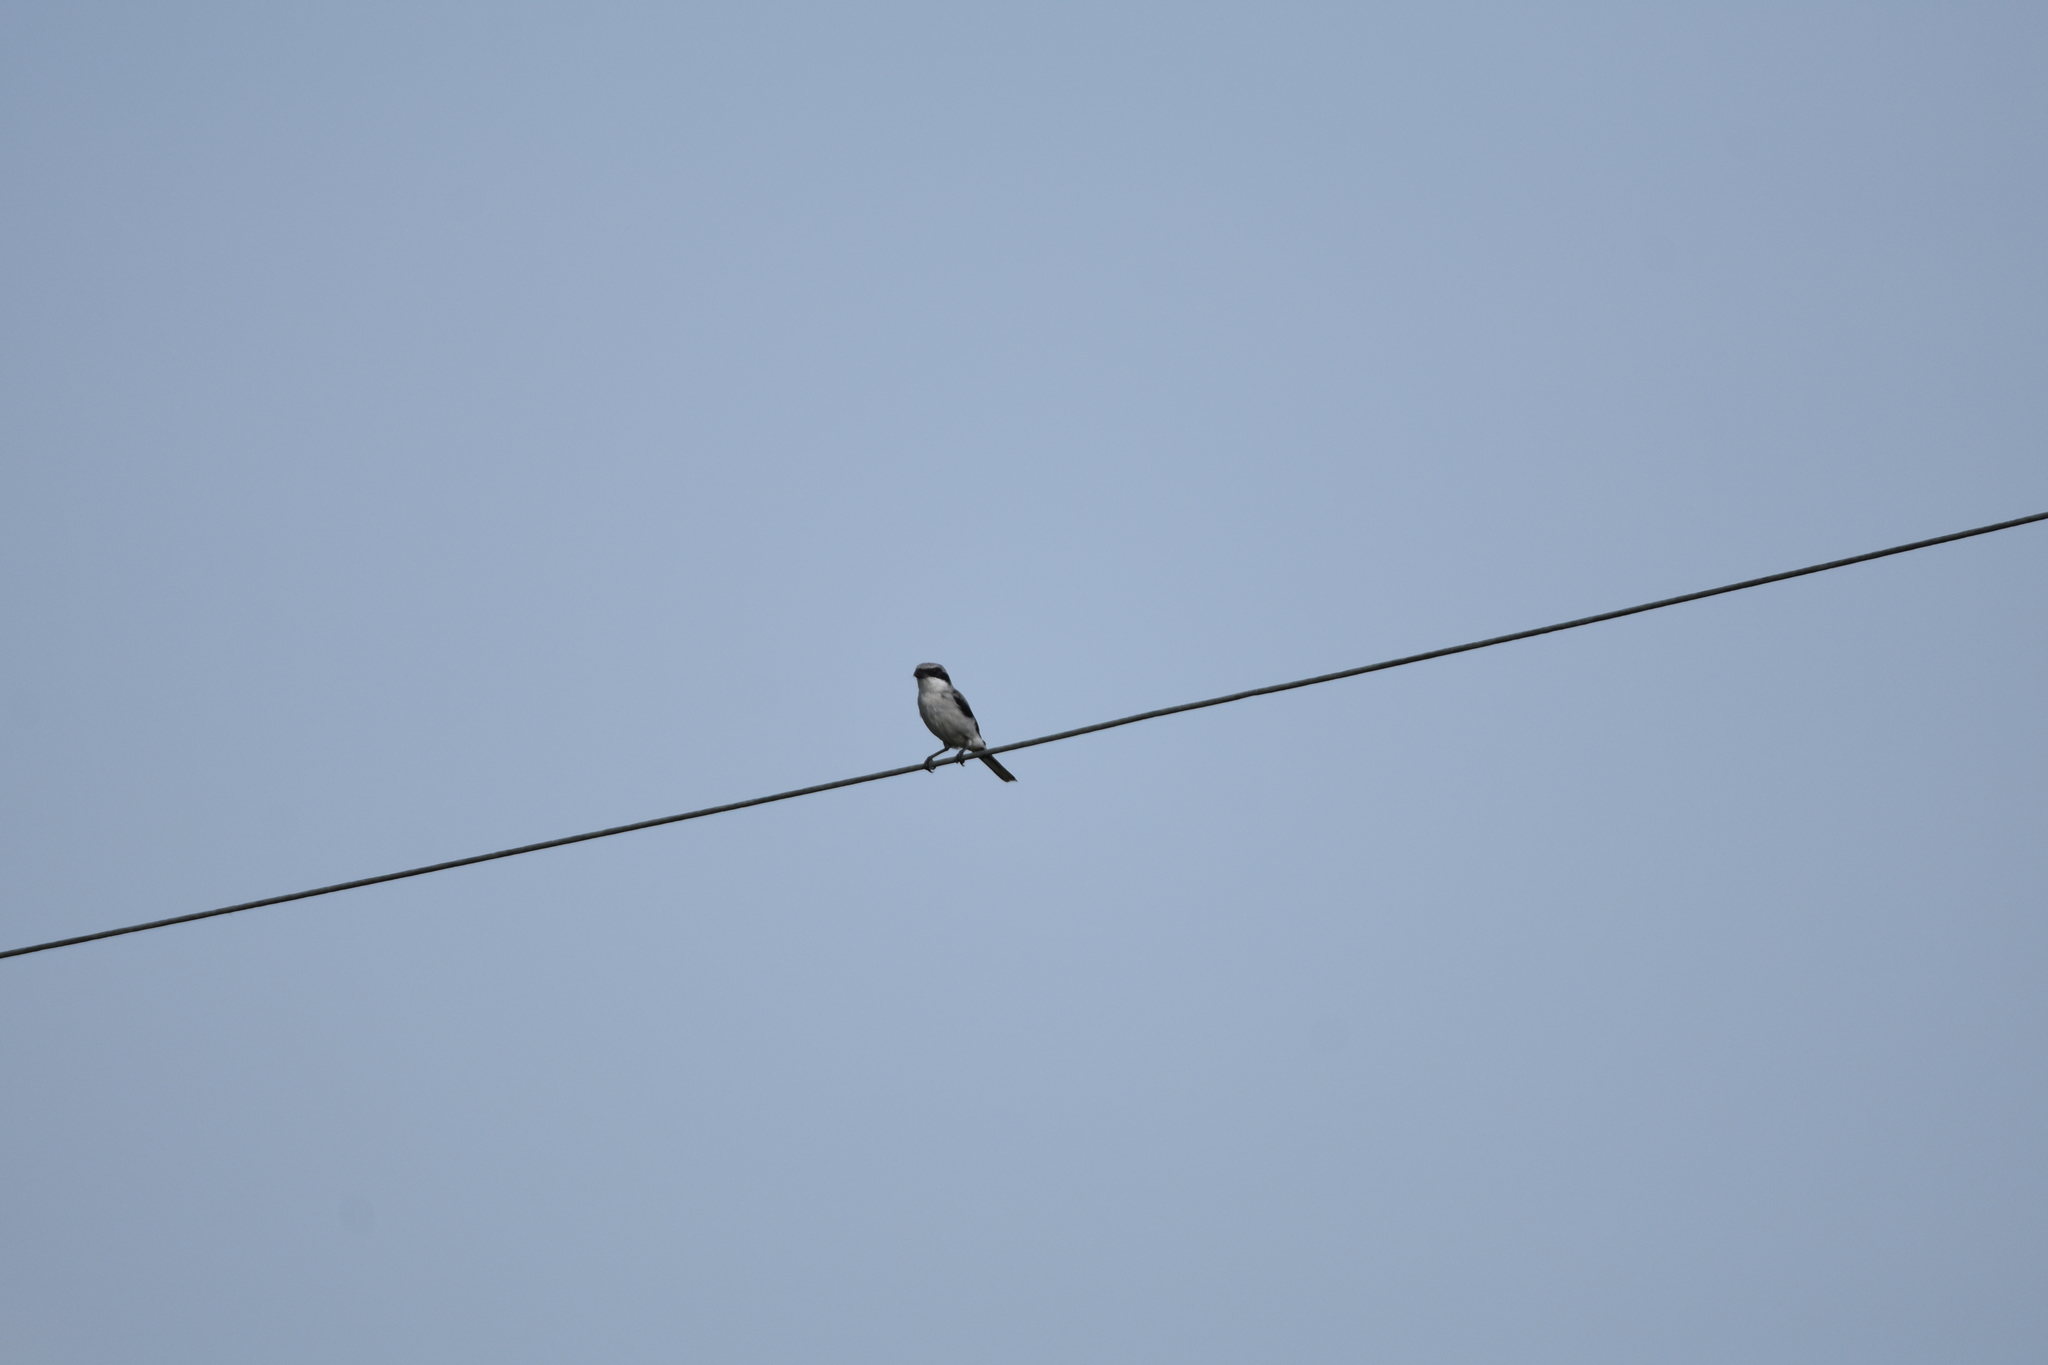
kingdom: Animalia
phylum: Chordata
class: Aves
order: Passeriformes
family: Laniidae
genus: Lanius
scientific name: Lanius ludovicianus
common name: Loggerhead shrike
